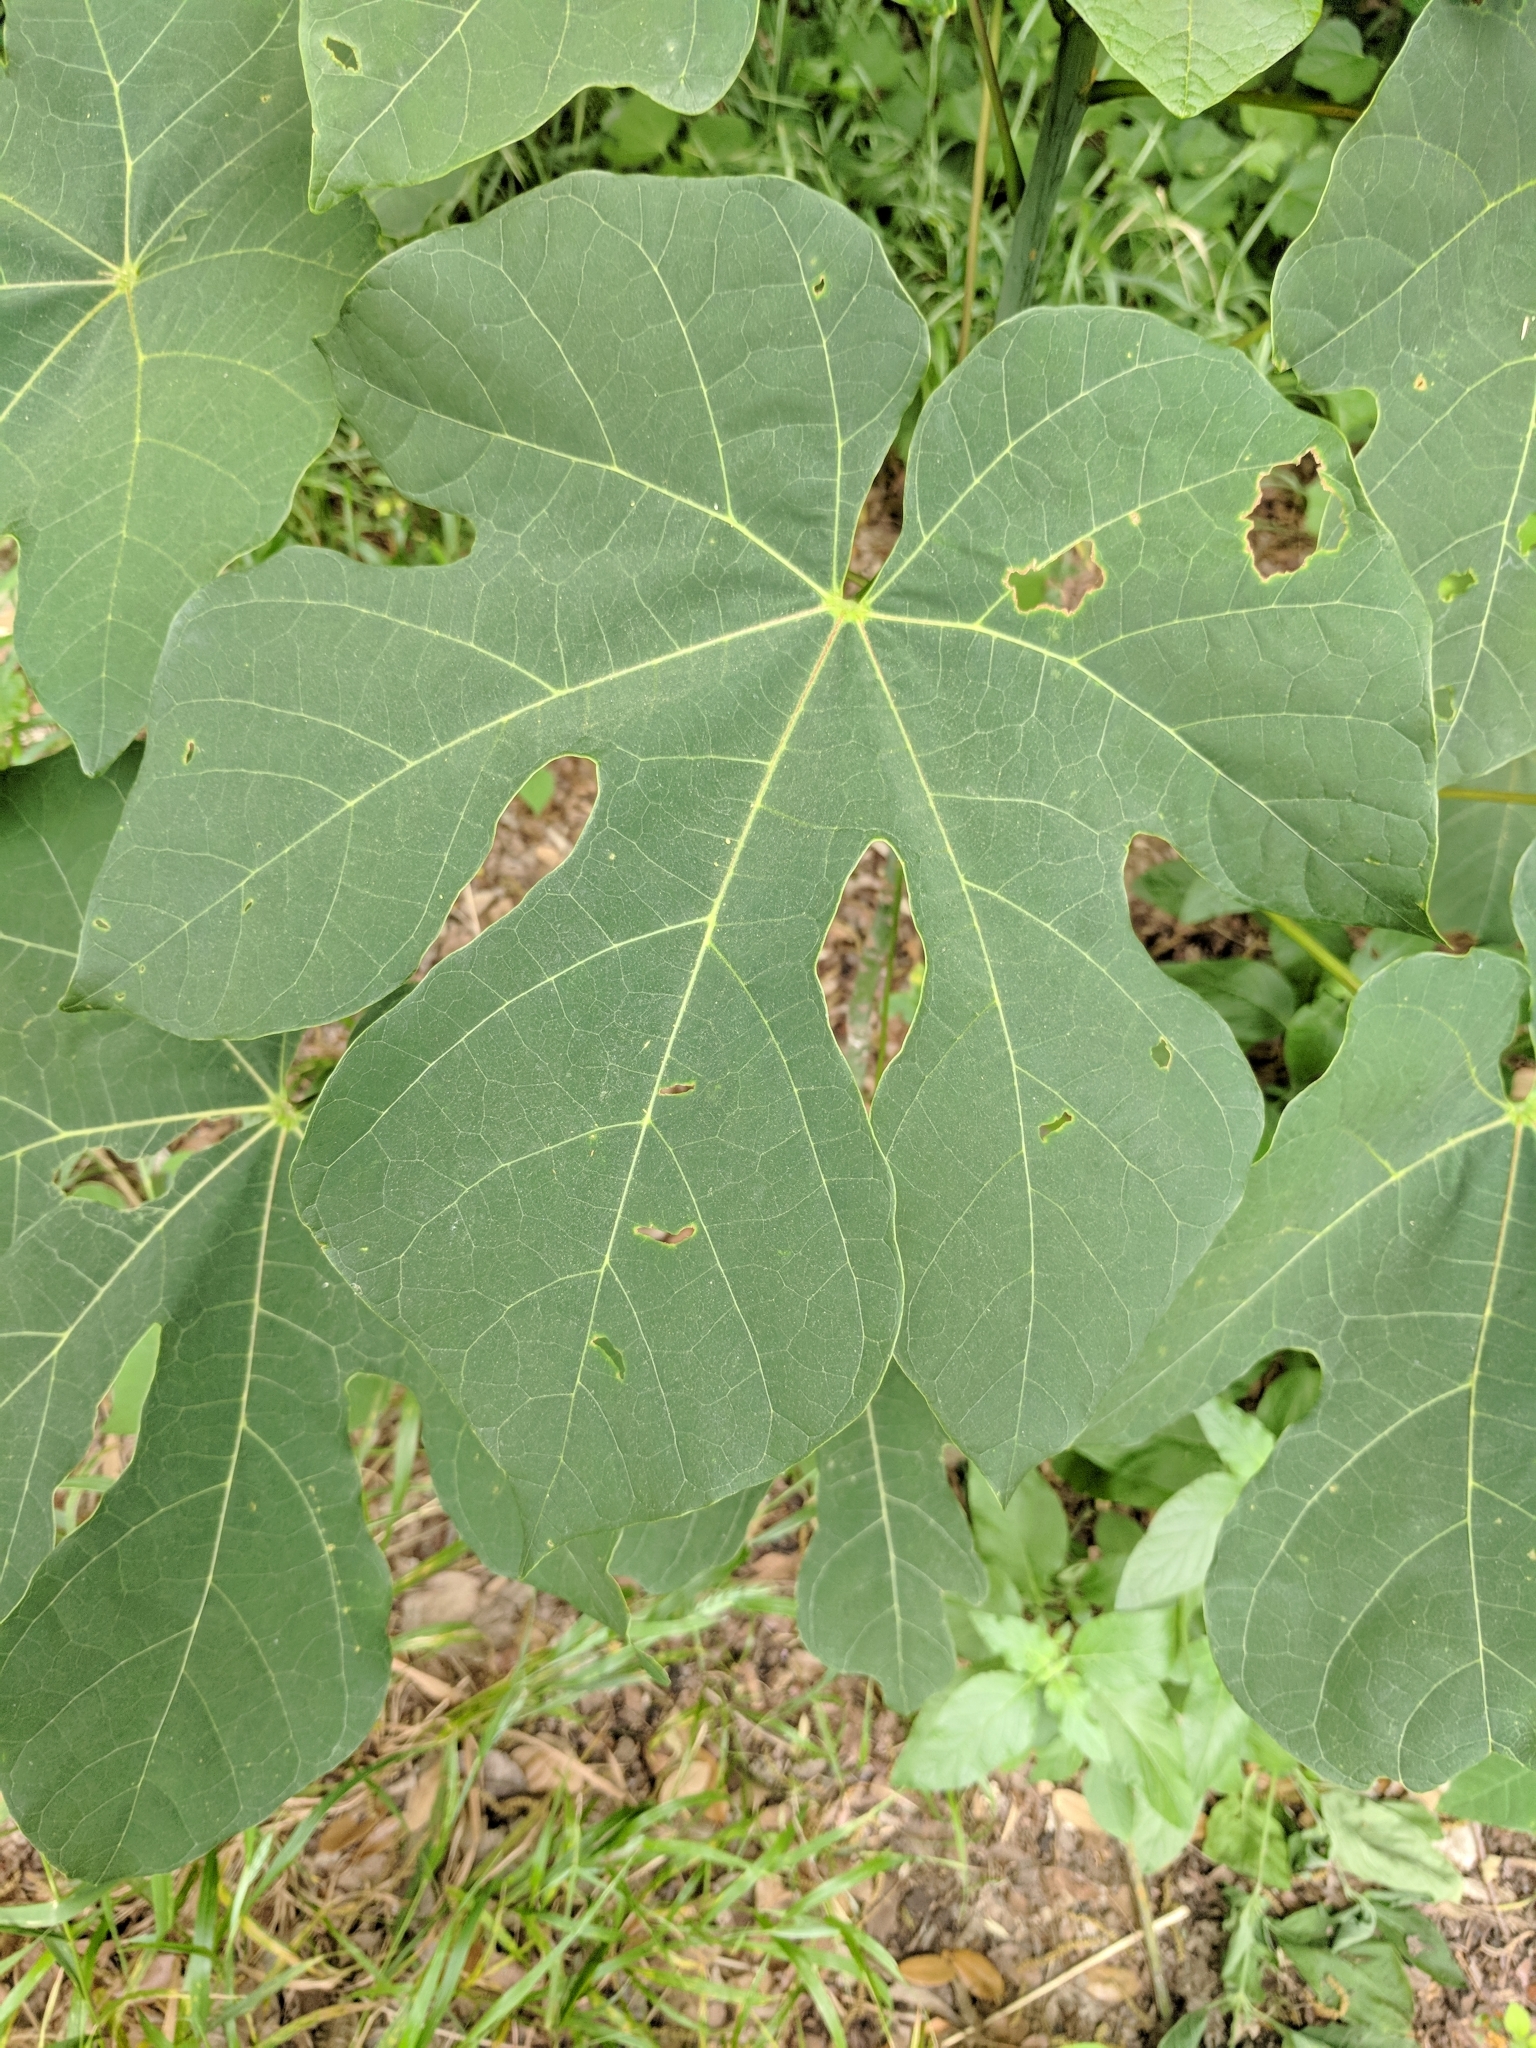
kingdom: Plantae
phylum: Tracheophyta
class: Magnoliopsida
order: Malvales
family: Malvaceae
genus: Firmiana
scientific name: Firmiana simplex
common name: Chinese parasoltree
